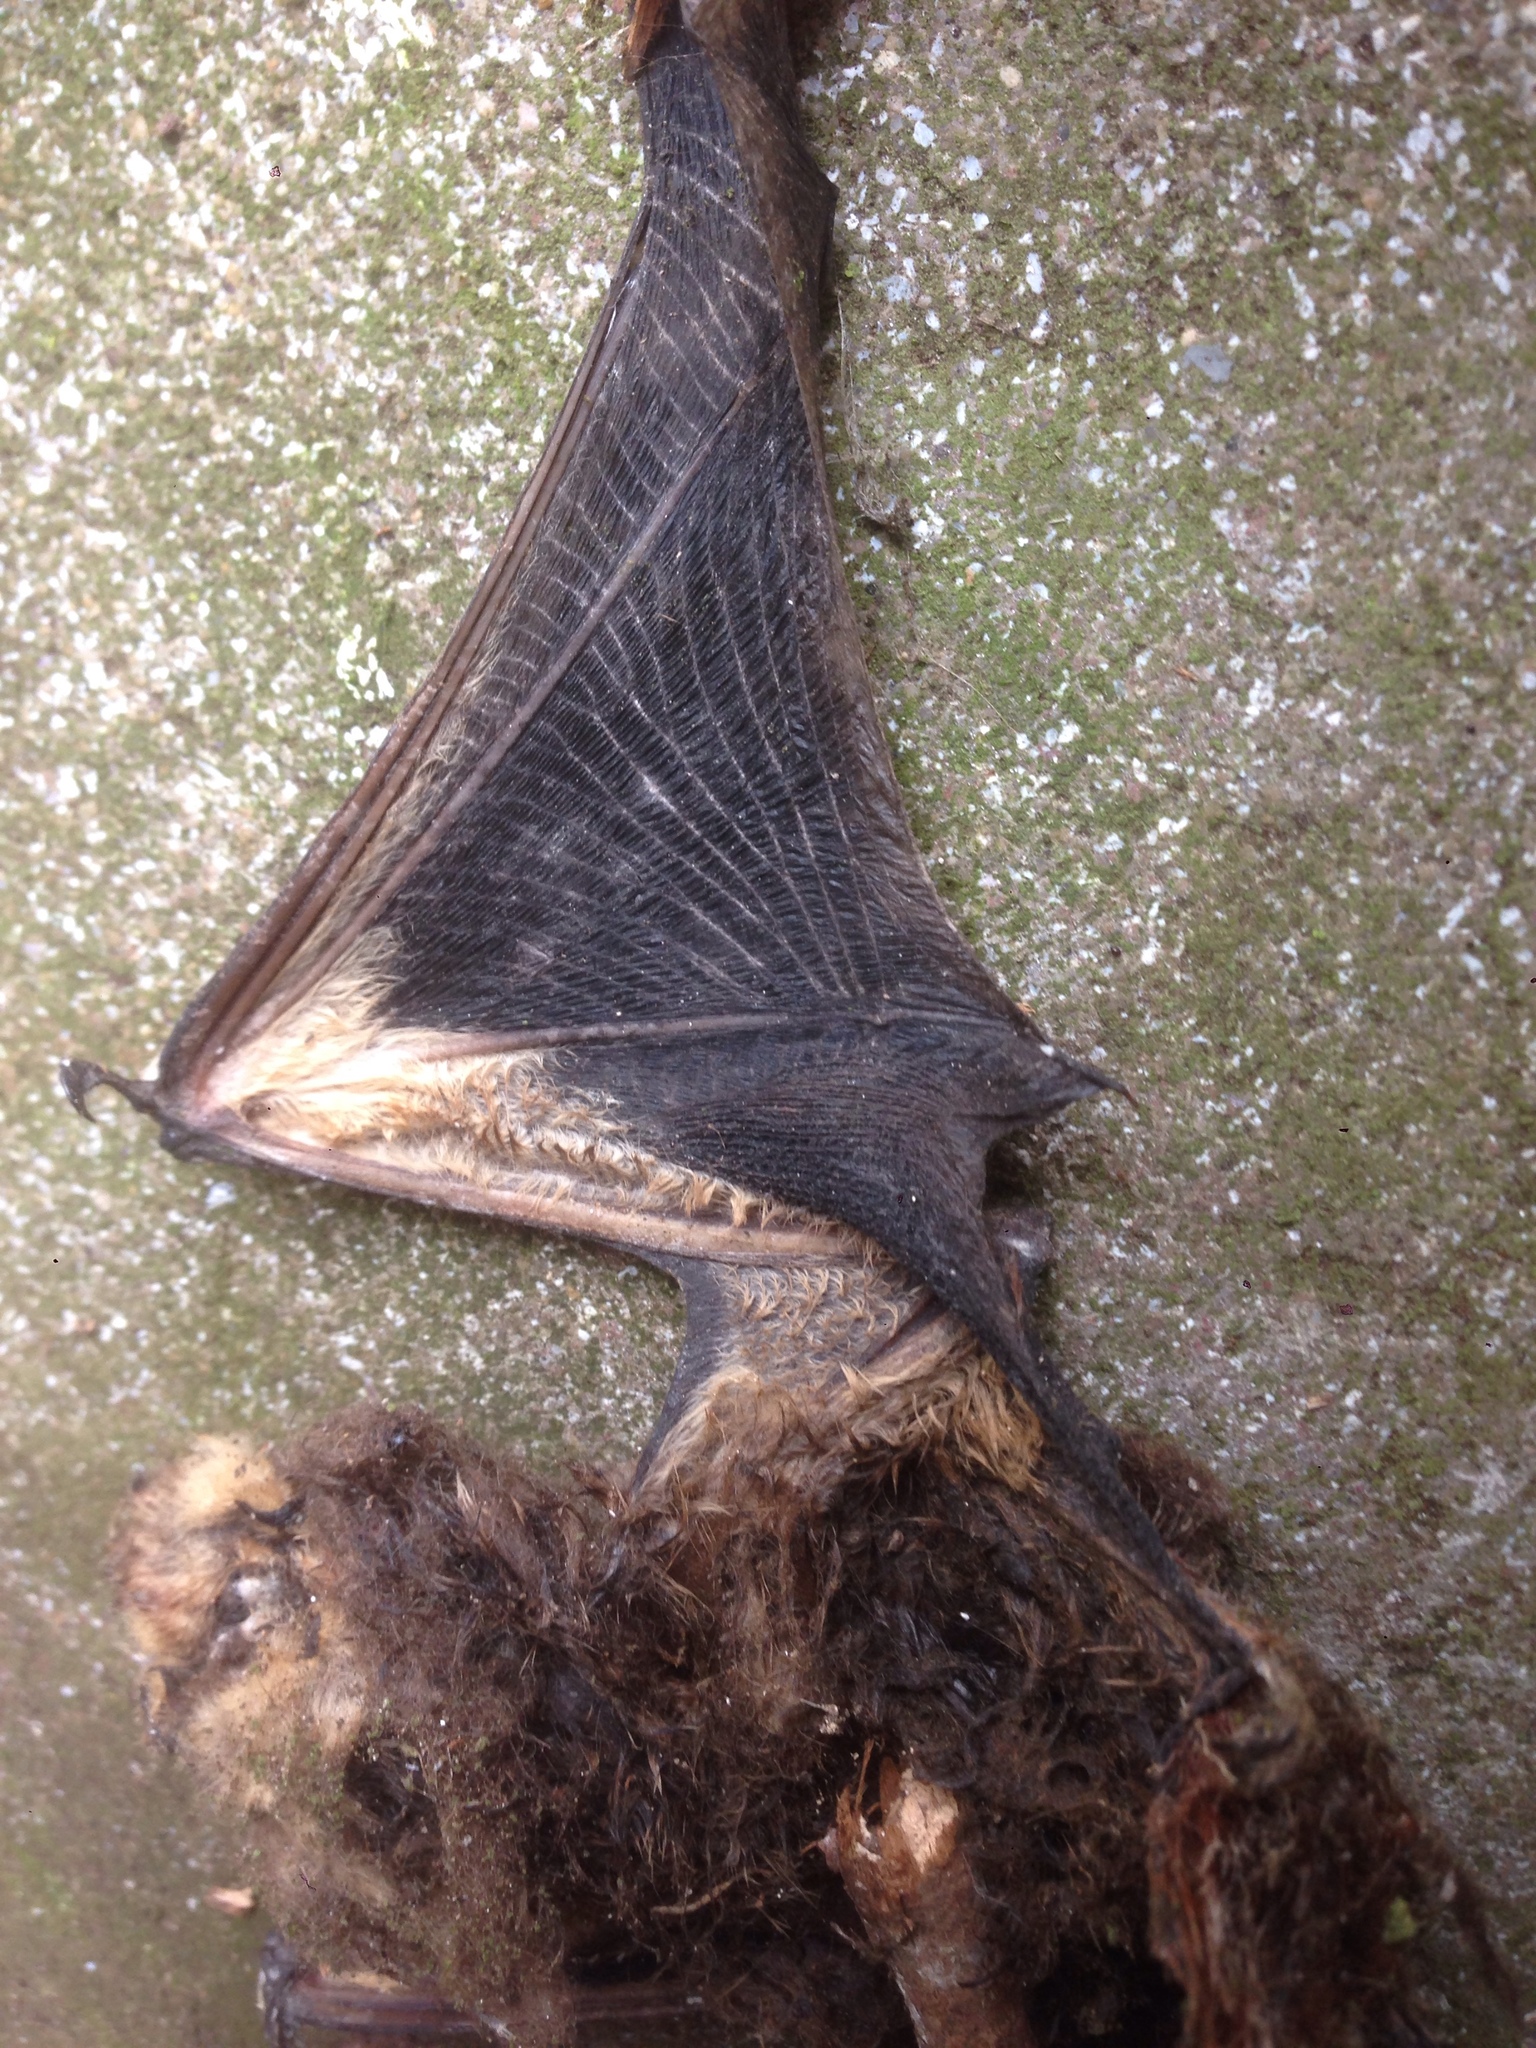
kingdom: Animalia
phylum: Chordata
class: Mammalia
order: Chiroptera
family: Vespertilionidae
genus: Aeorestes
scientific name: Aeorestes cinereus
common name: North american hoary bat
